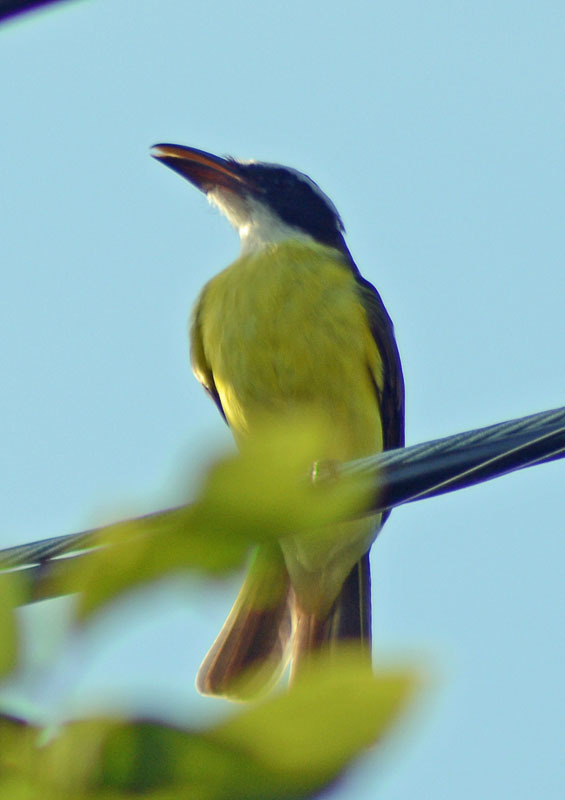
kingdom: Animalia
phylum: Chordata
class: Aves
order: Passeriformes
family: Tyrannidae
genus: Megarynchus
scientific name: Megarynchus pitangua
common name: Boat-billed flycatcher
